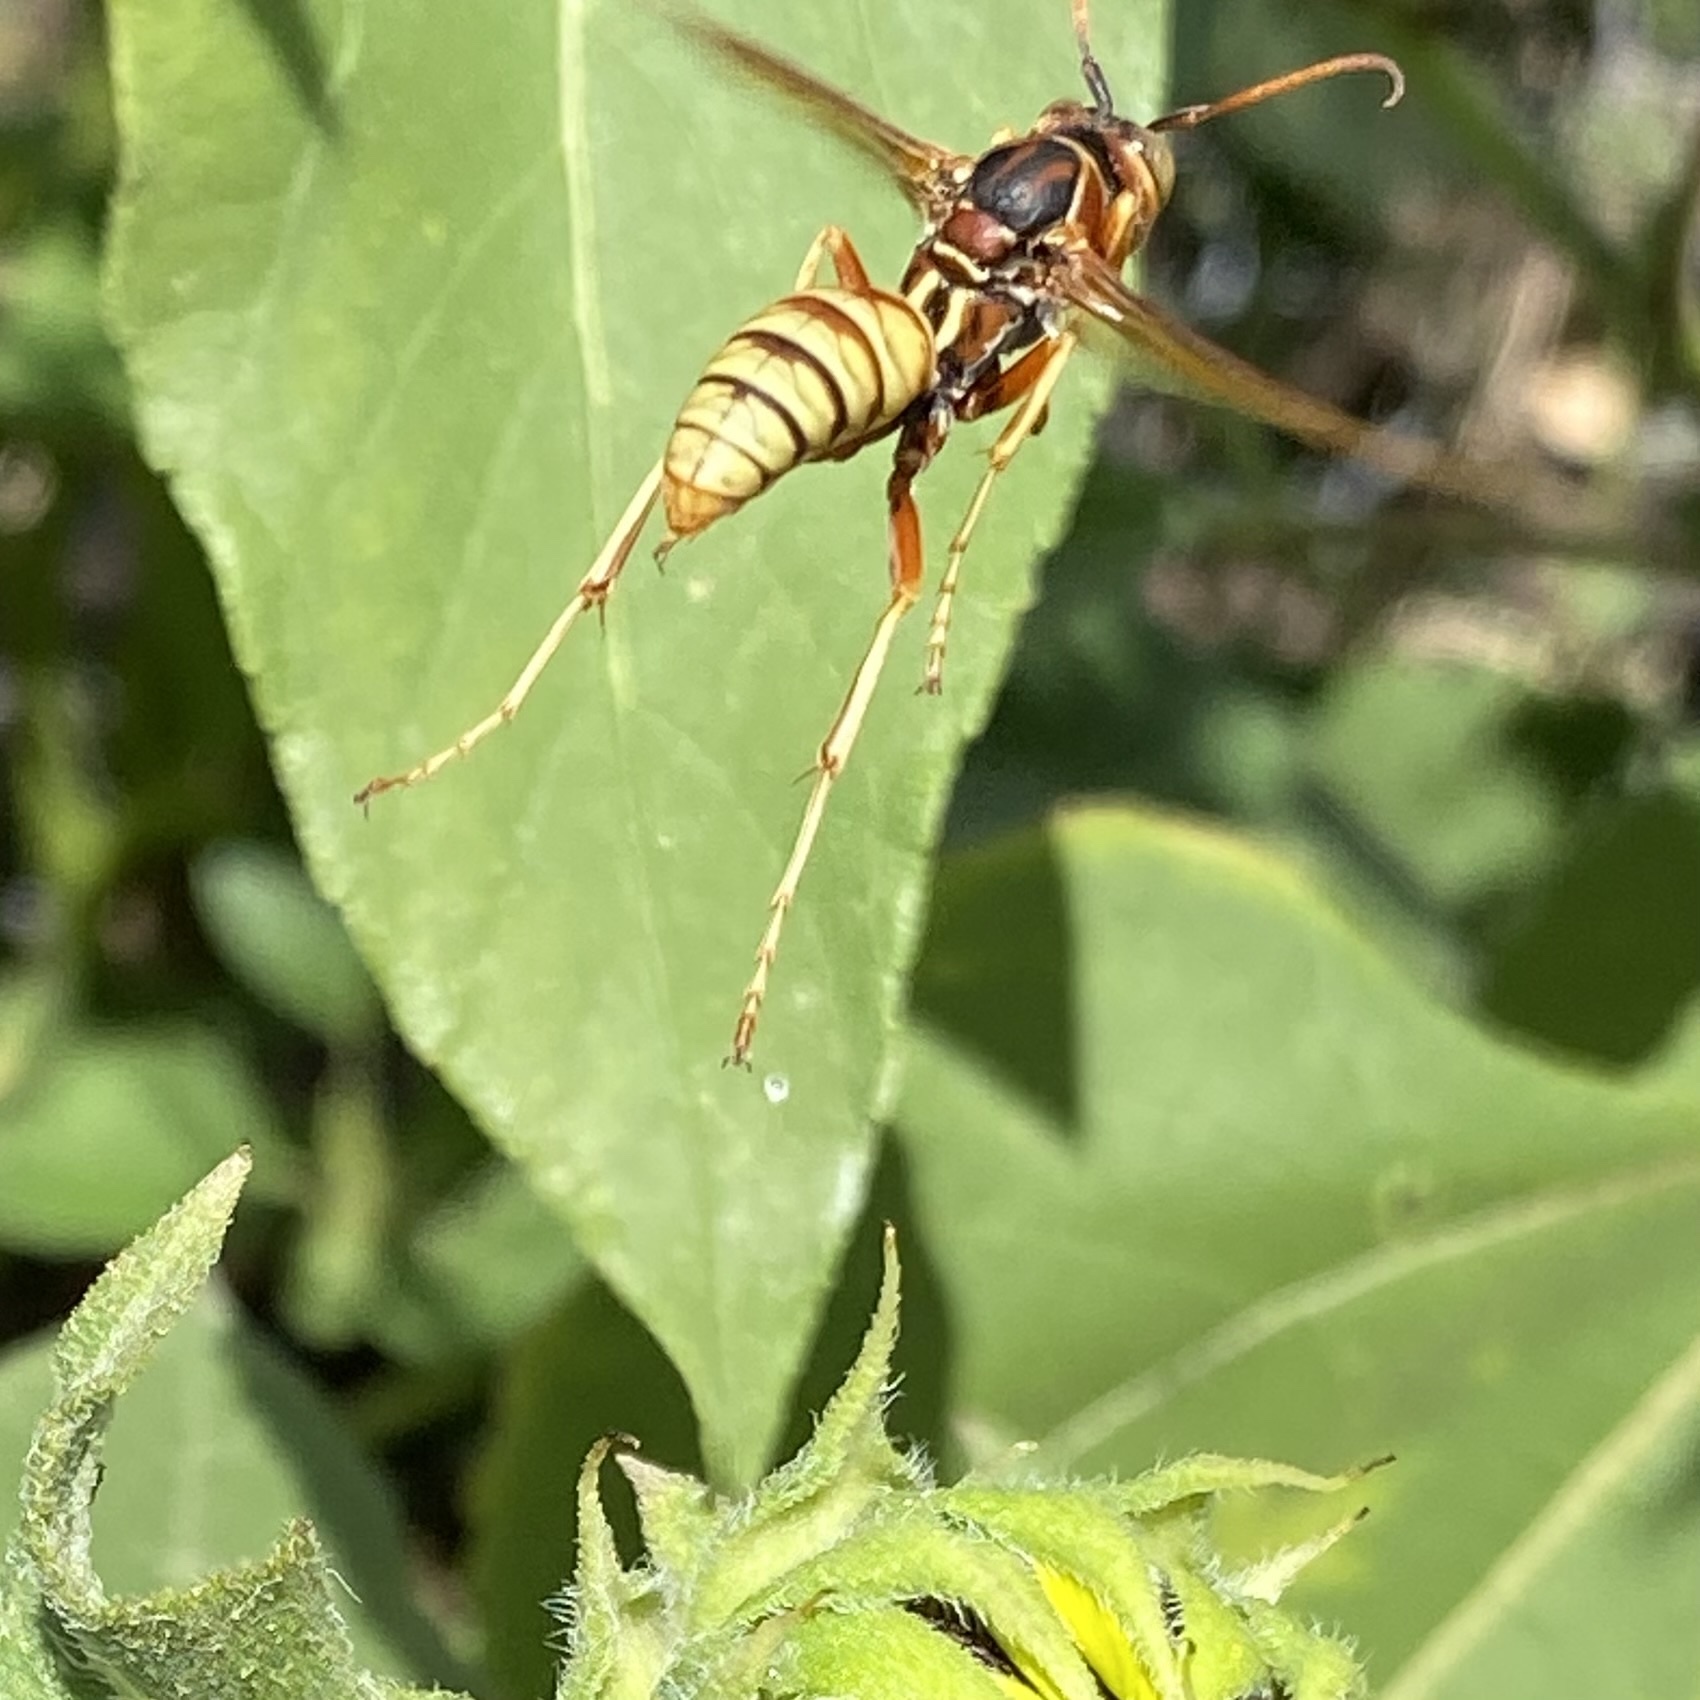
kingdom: Animalia
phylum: Arthropoda
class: Insecta
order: Hymenoptera
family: Eumenidae
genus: Polistes
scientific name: Polistes aurifer
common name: Paper wasp
